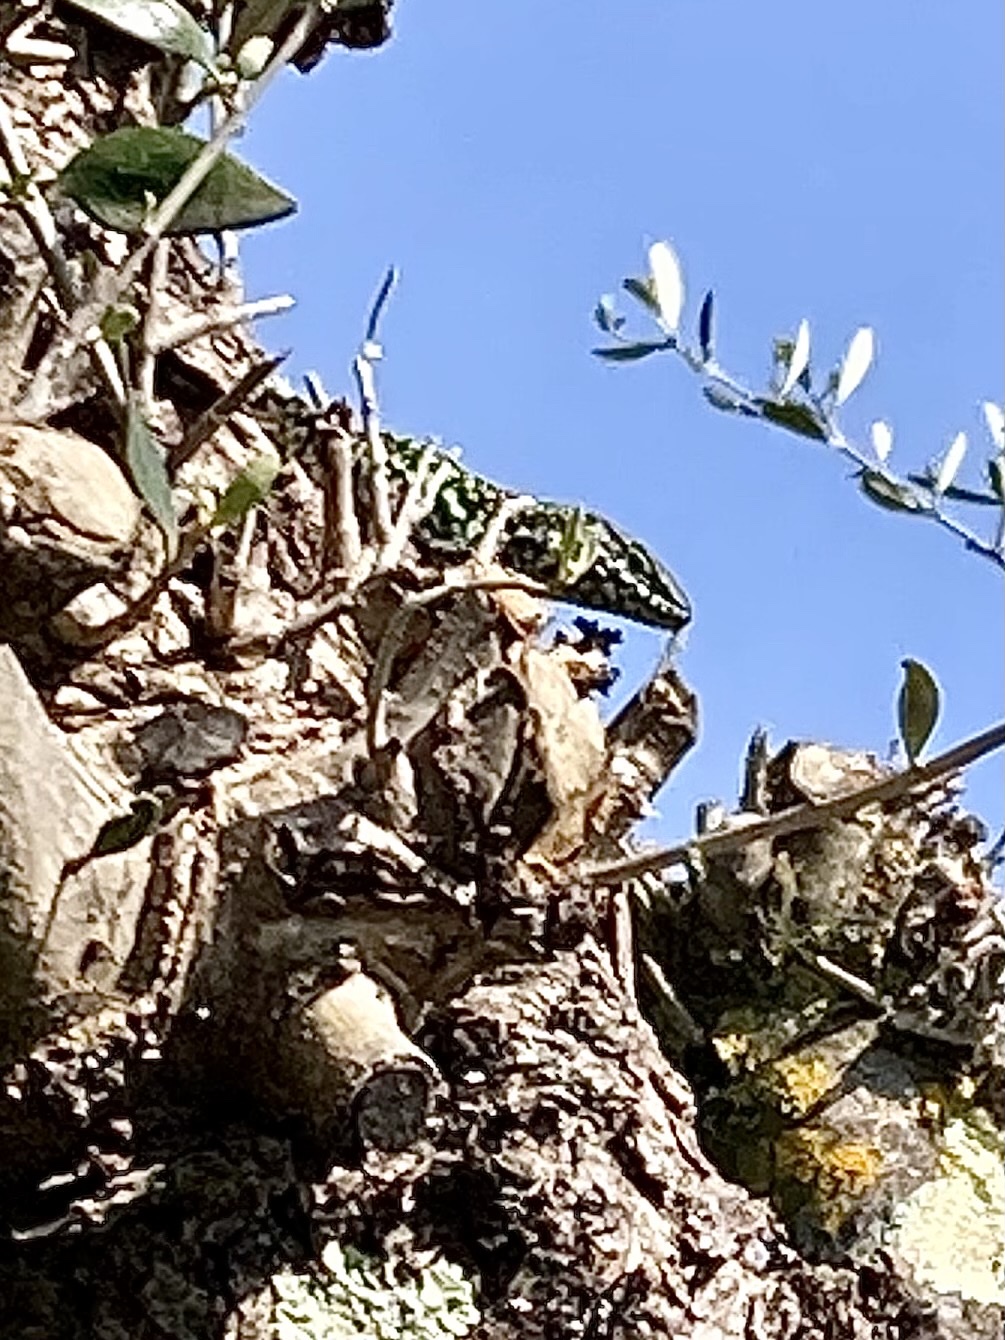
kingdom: Animalia
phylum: Chordata
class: Squamata
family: Lacertidae
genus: Podarcis
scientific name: Podarcis muralis
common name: Common wall lizard
